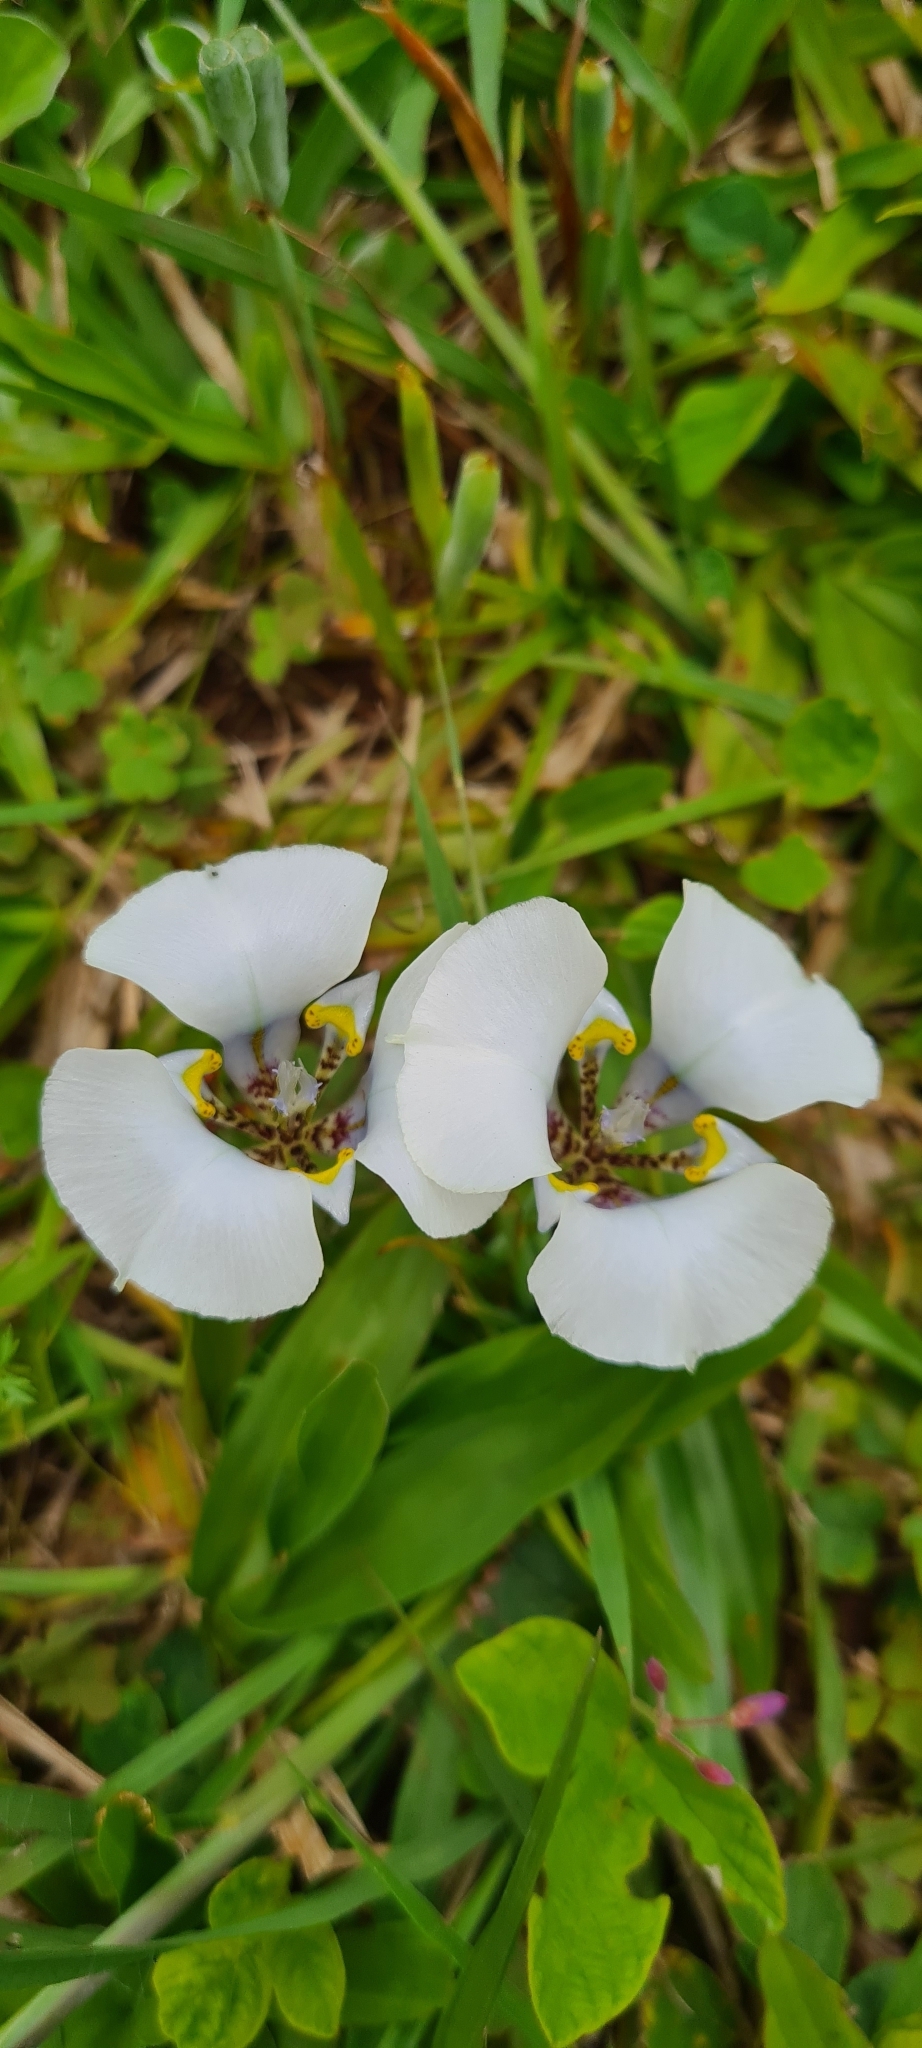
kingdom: Plantae
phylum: Tracheophyta
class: Liliopsida
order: Asparagales
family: Iridaceae
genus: Cypella
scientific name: Cypella opalina
